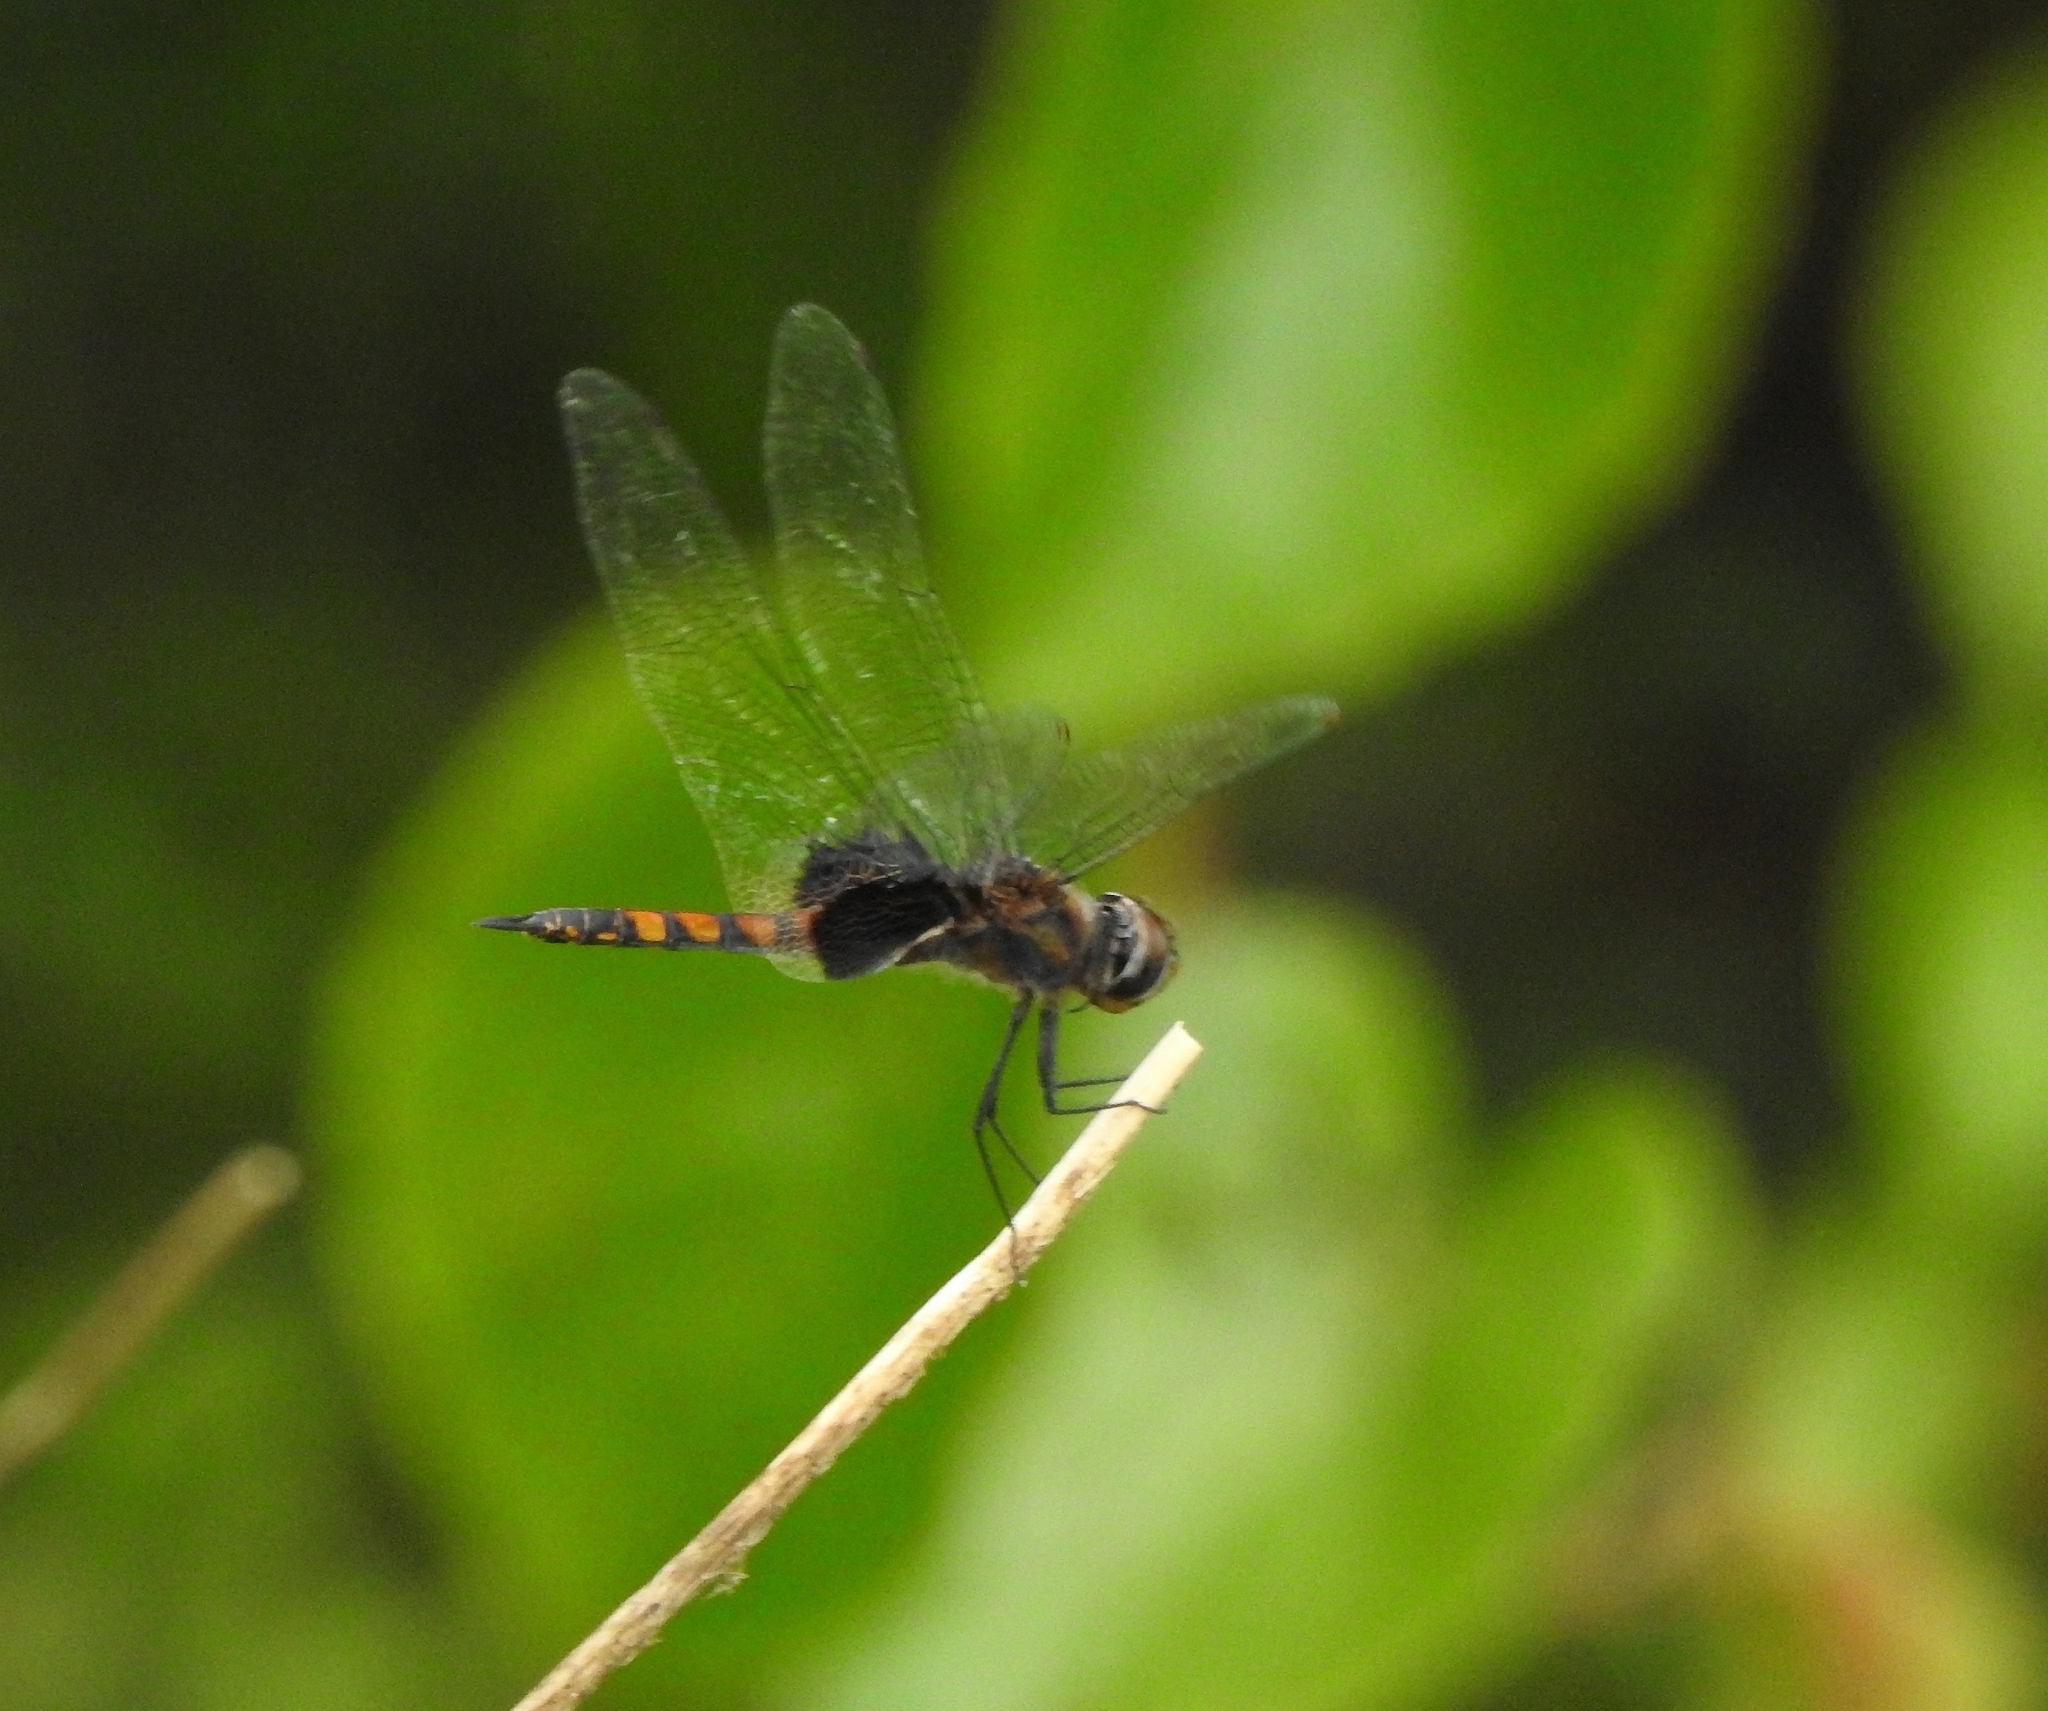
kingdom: Animalia
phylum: Arthropoda
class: Insecta
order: Odonata
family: Libellulidae
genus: Tramea
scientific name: Tramea limbata
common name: Ferruginous glider
